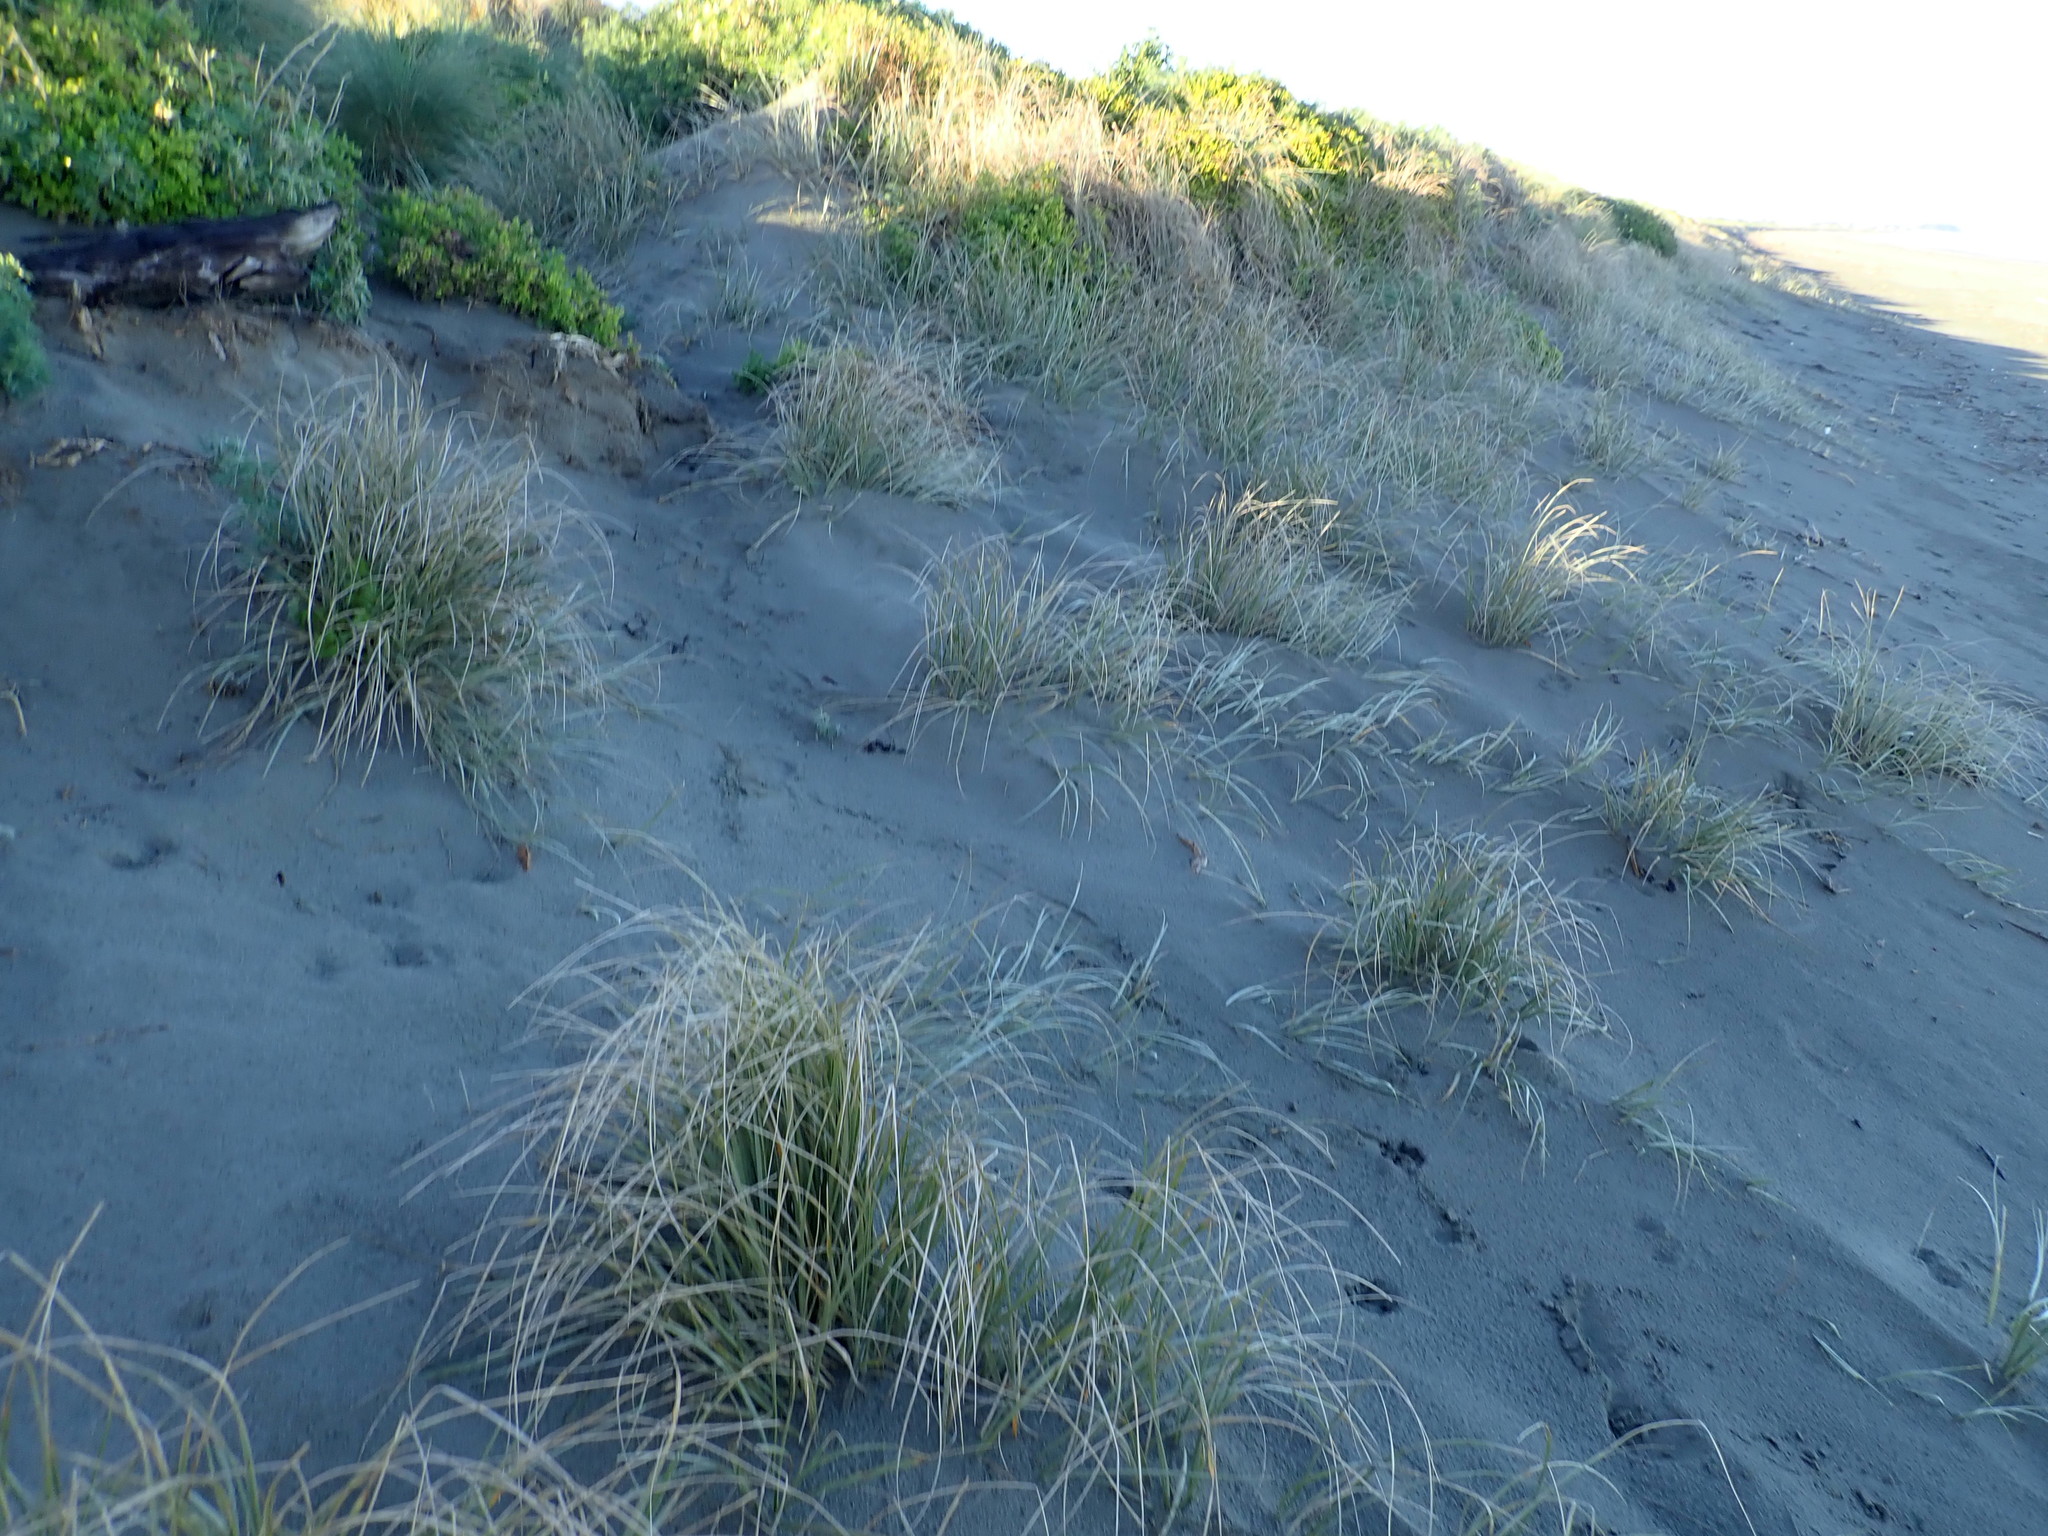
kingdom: Plantae
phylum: Tracheophyta
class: Liliopsida
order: Poales
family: Poaceae
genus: Spinifex
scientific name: Spinifex sericeus
